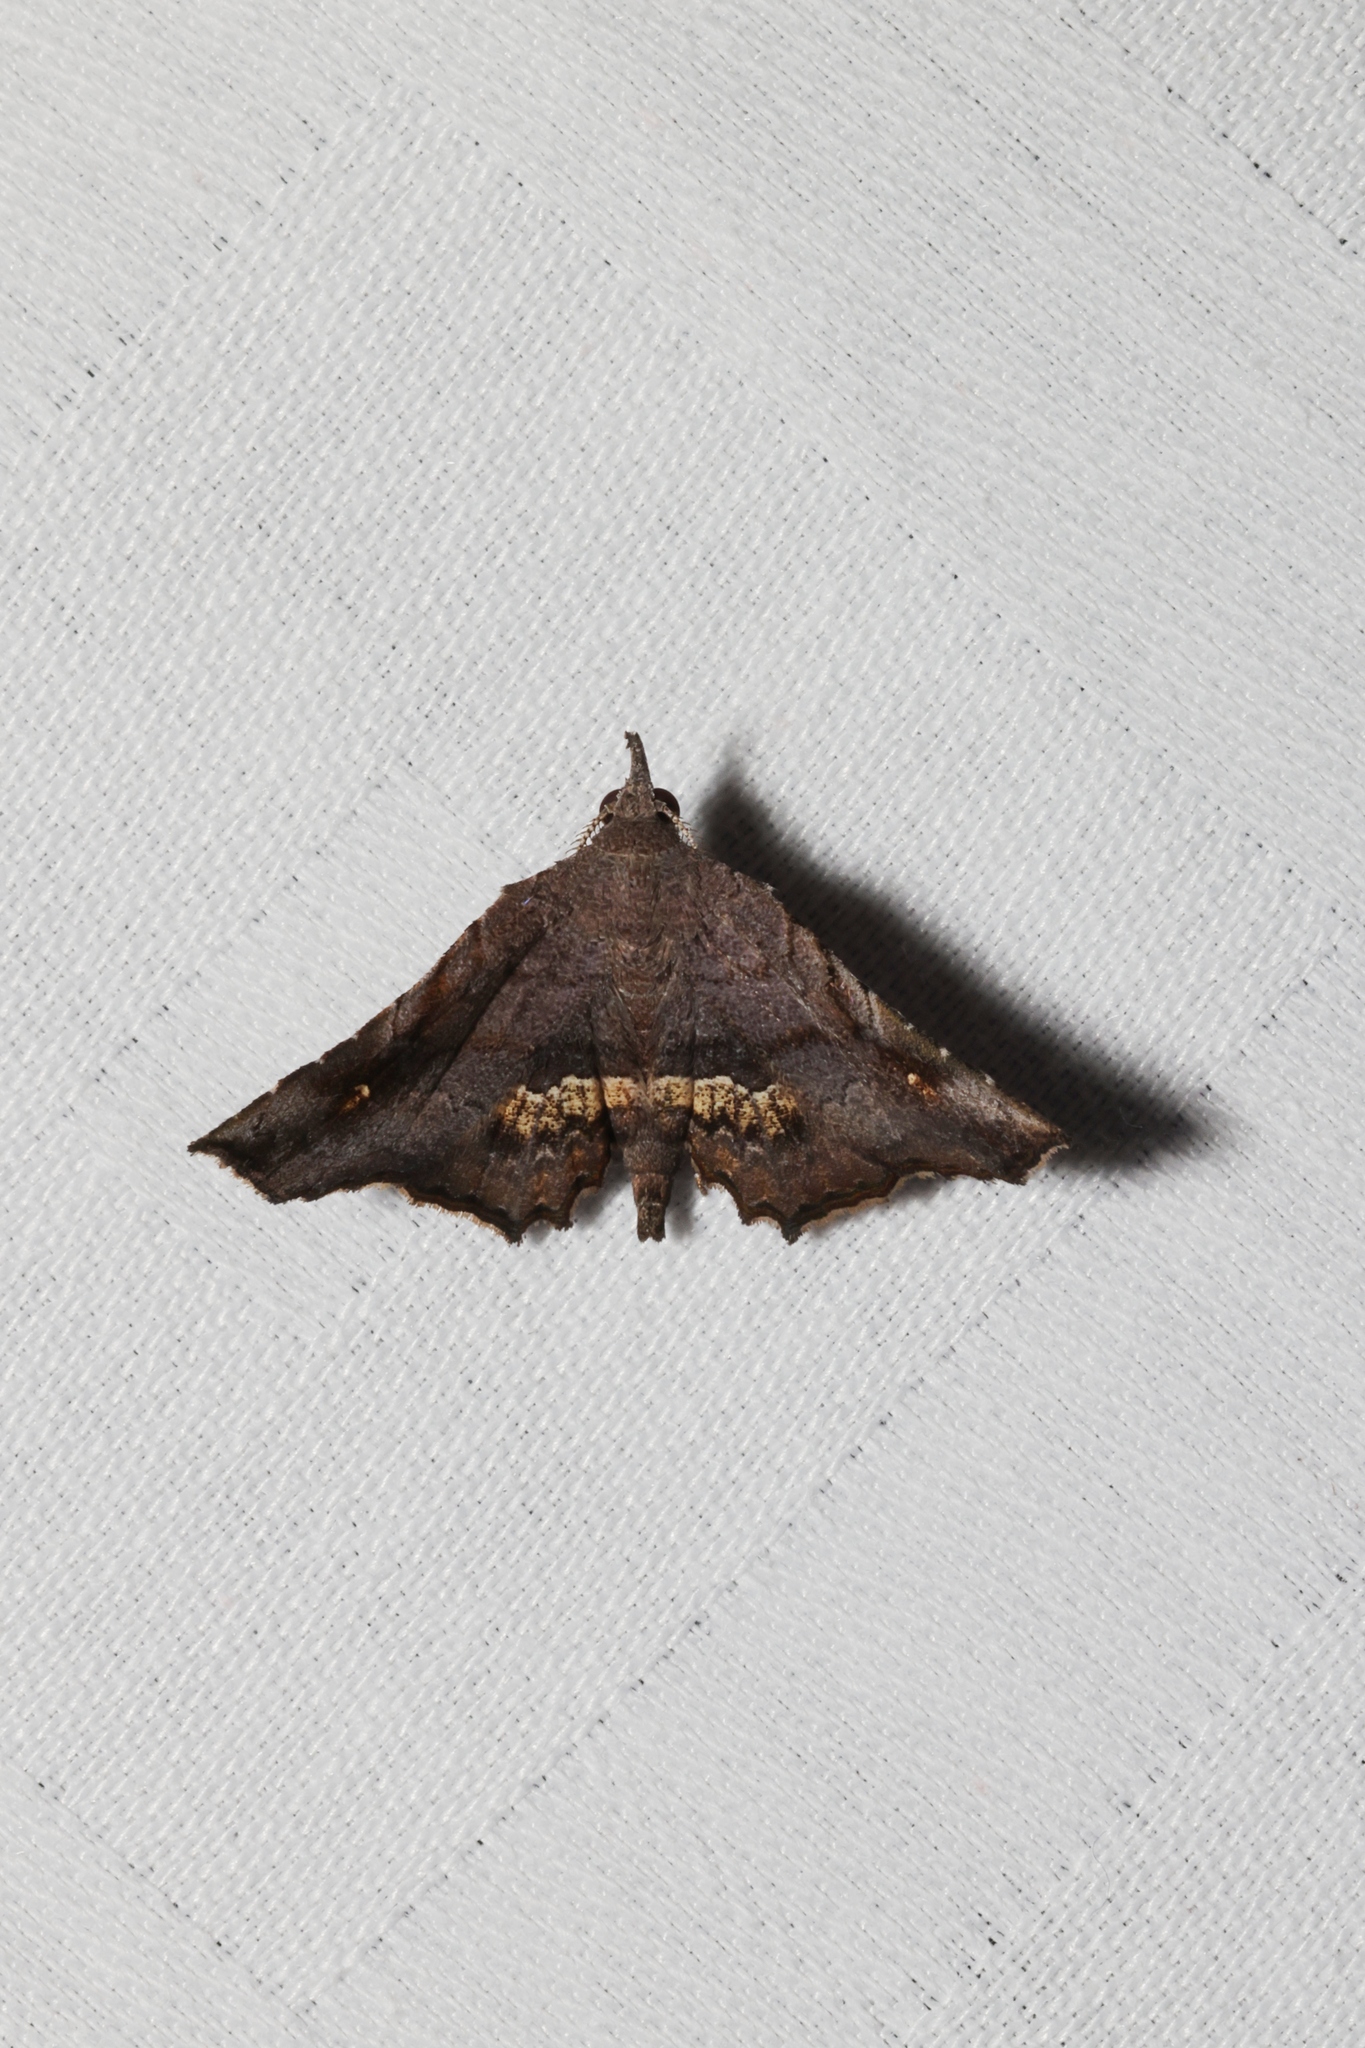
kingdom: Animalia
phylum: Arthropoda
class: Insecta
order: Lepidoptera
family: Erebidae
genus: Throana
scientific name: Throana pectinifer
